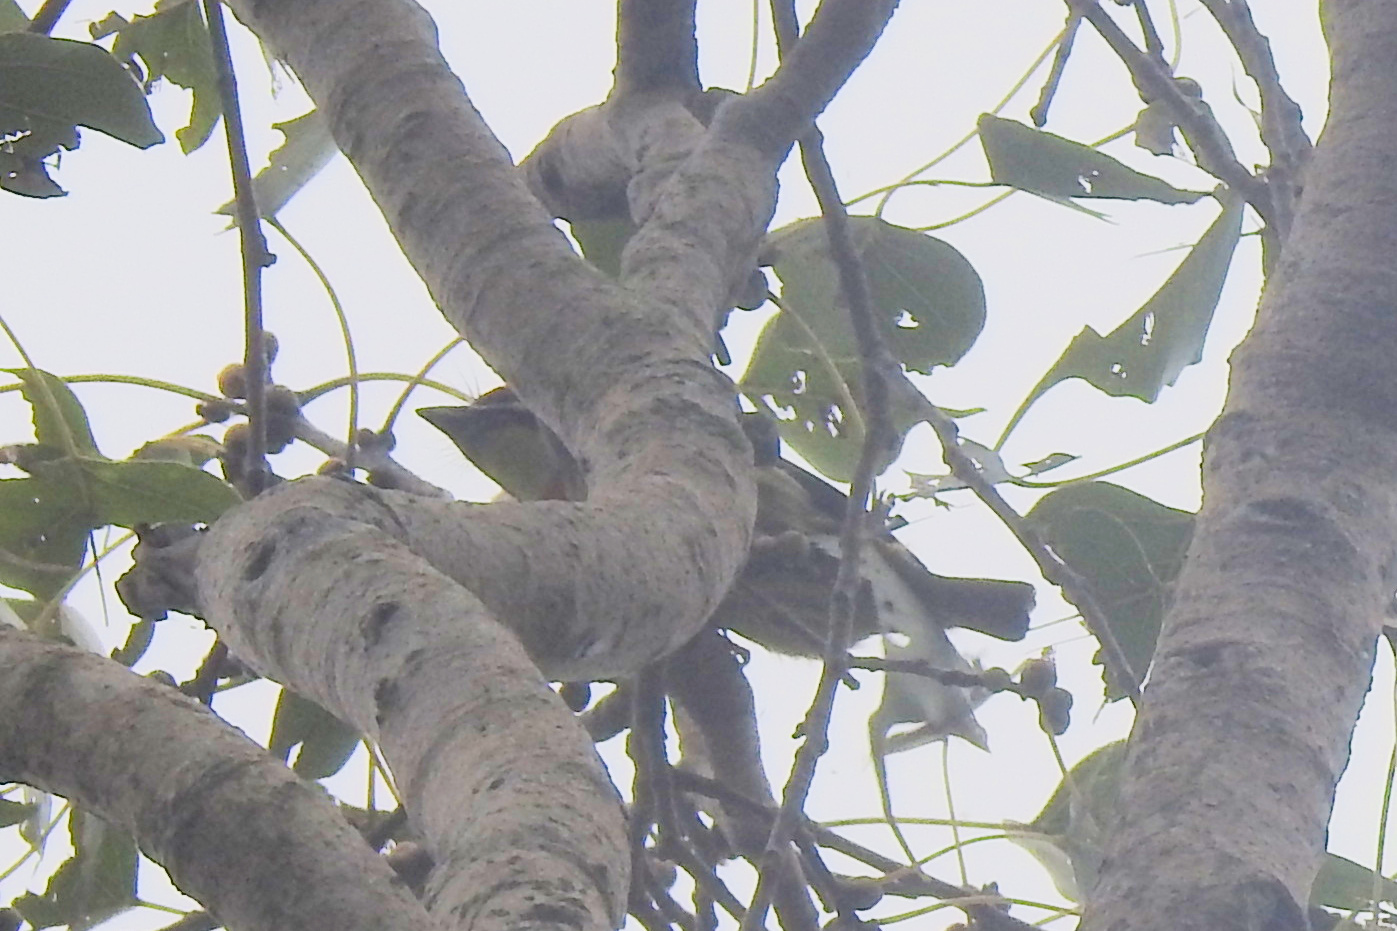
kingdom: Animalia
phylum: Chordata
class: Aves
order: Piciformes
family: Megalaimidae
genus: Psilopogon
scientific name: Psilopogon haemacephalus
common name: Coppersmith barbet
